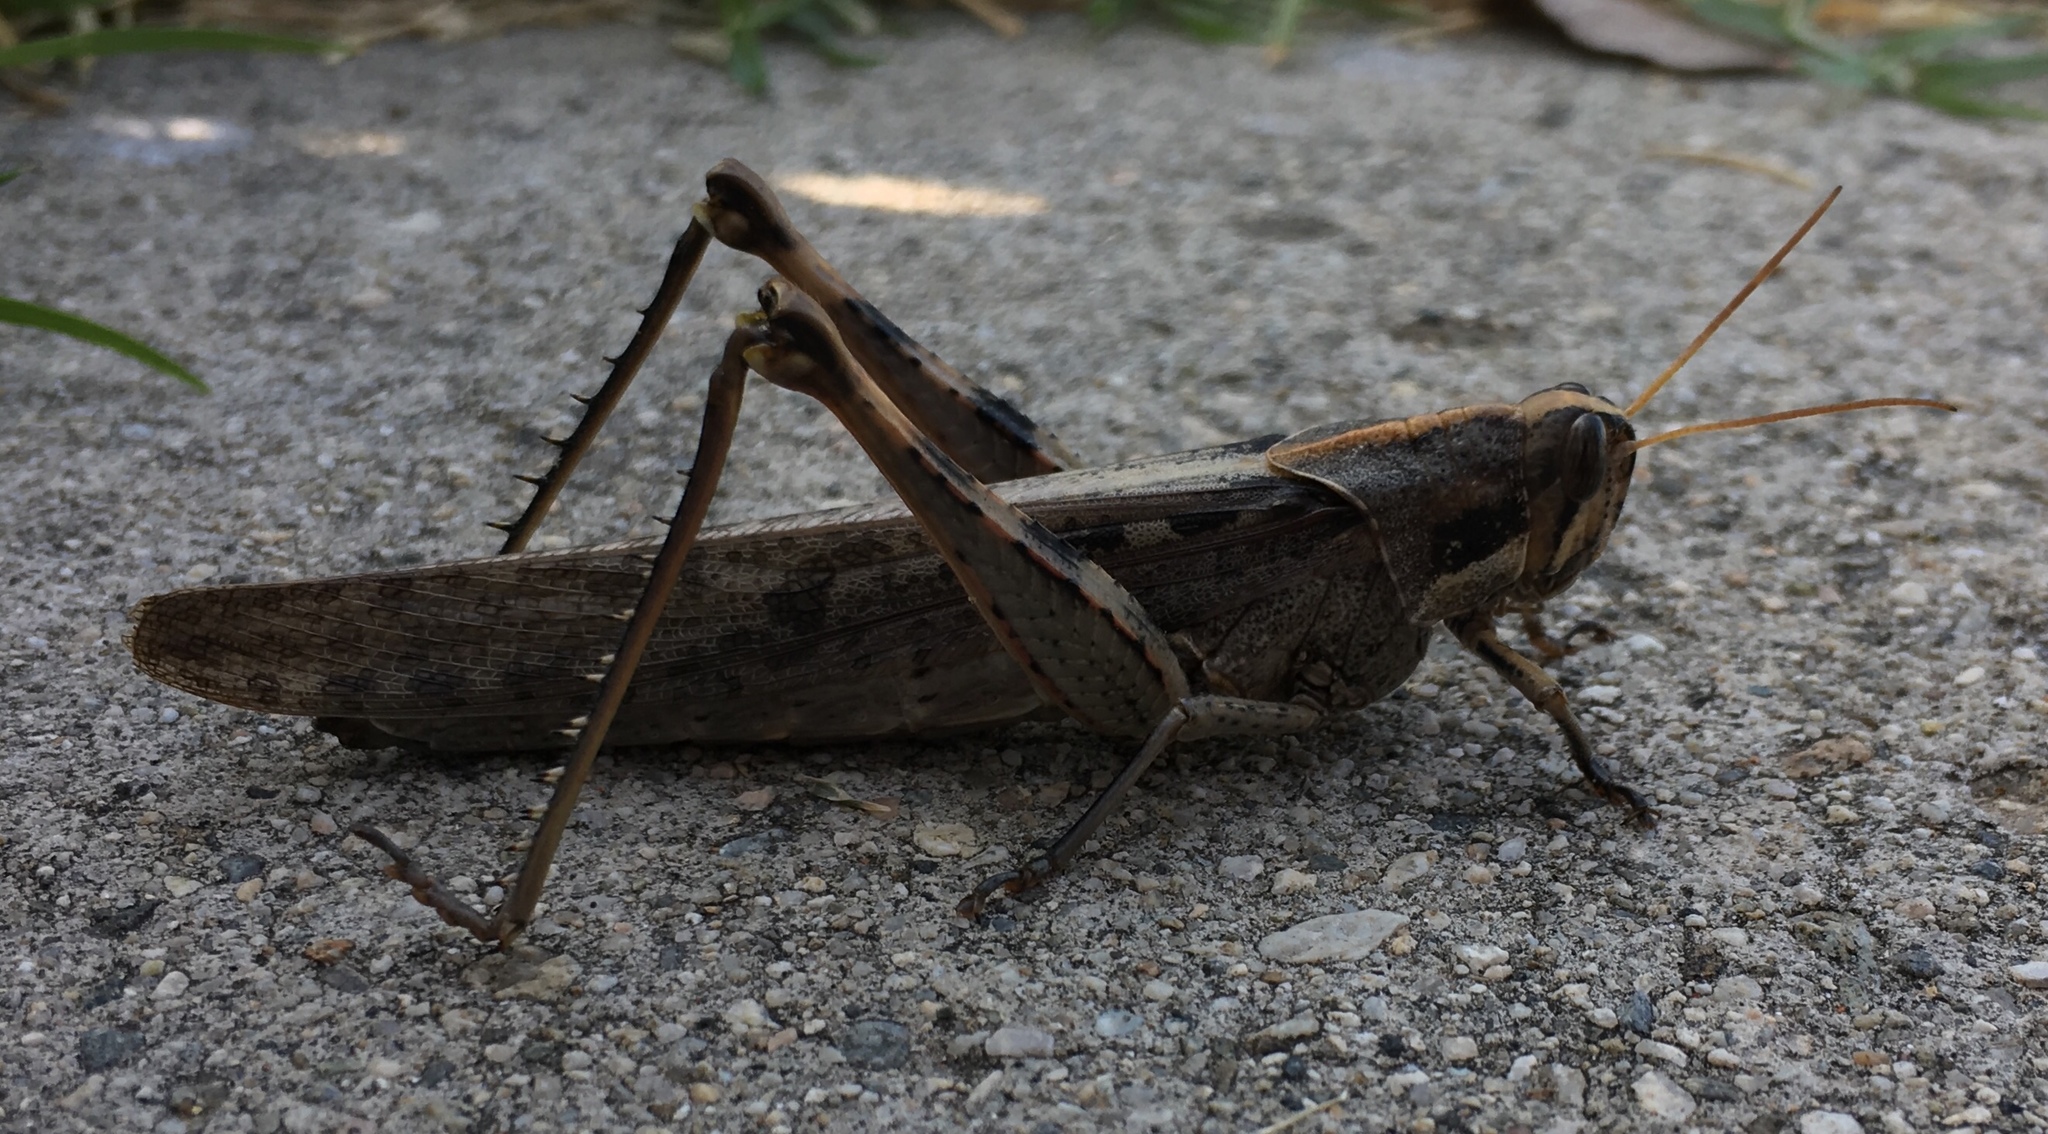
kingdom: Animalia
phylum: Arthropoda
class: Insecta
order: Orthoptera
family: Acrididae
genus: Schistocerca
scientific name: Schistocerca nitens
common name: Vagrant grasshopper
